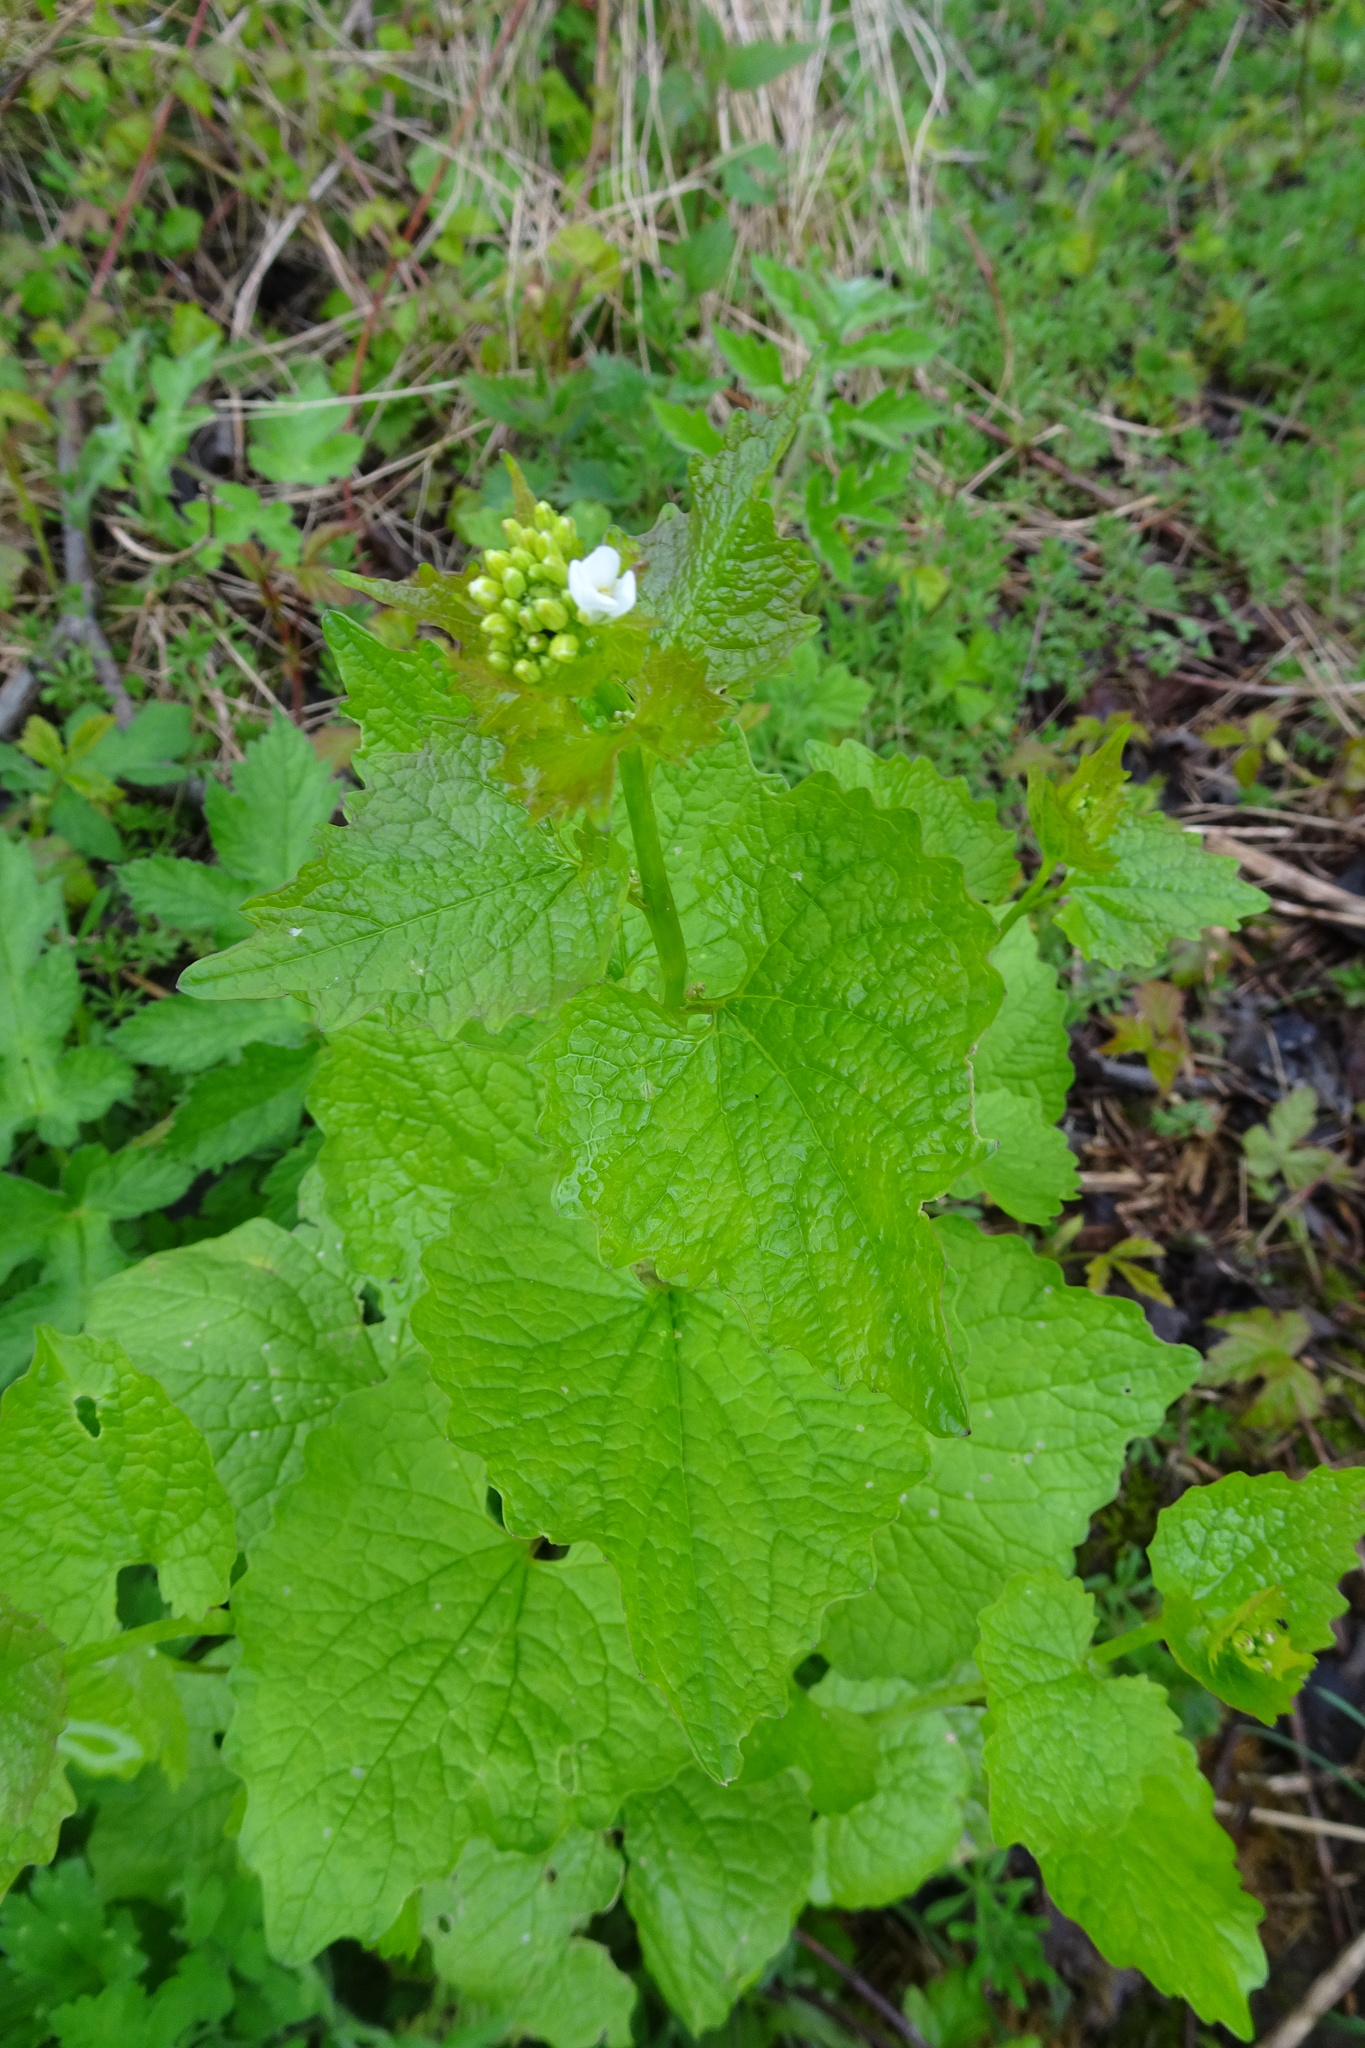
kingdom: Plantae
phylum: Tracheophyta
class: Magnoliopsida
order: Brassicales
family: Brassicaceae
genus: Alliaria
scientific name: Alliaria petiolata
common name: Garlic mustard
